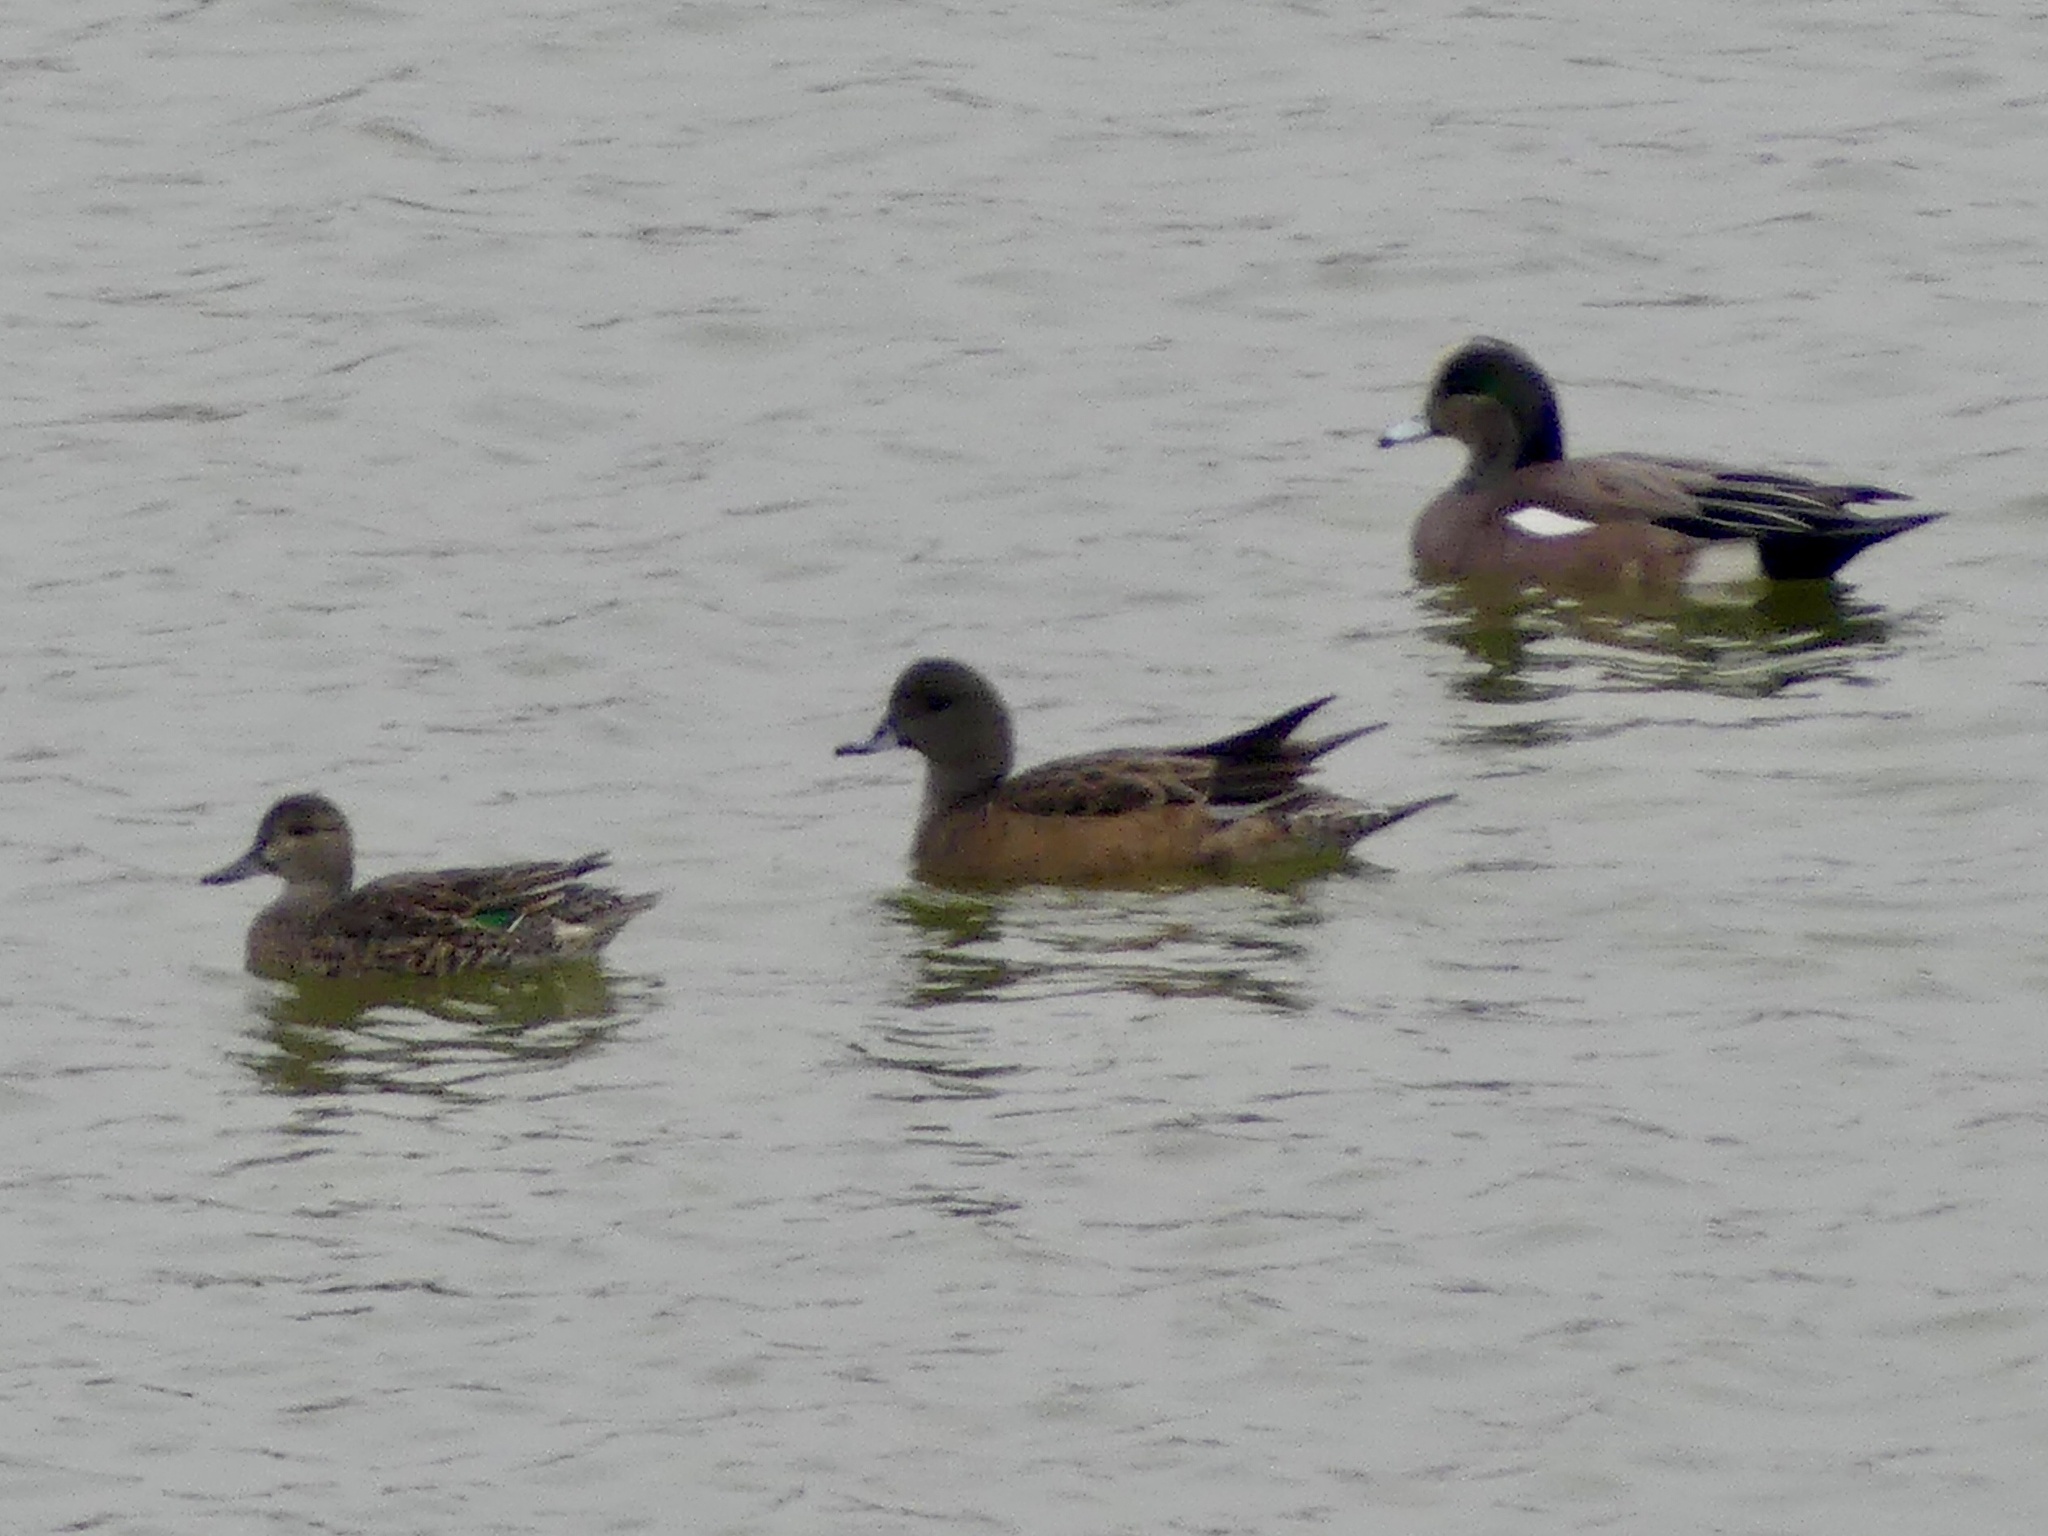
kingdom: Animalia
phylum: Chordata
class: Aves
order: Anseriformes
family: Anatidae
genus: Anas
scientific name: Anas crecca
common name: Eurasian teal
